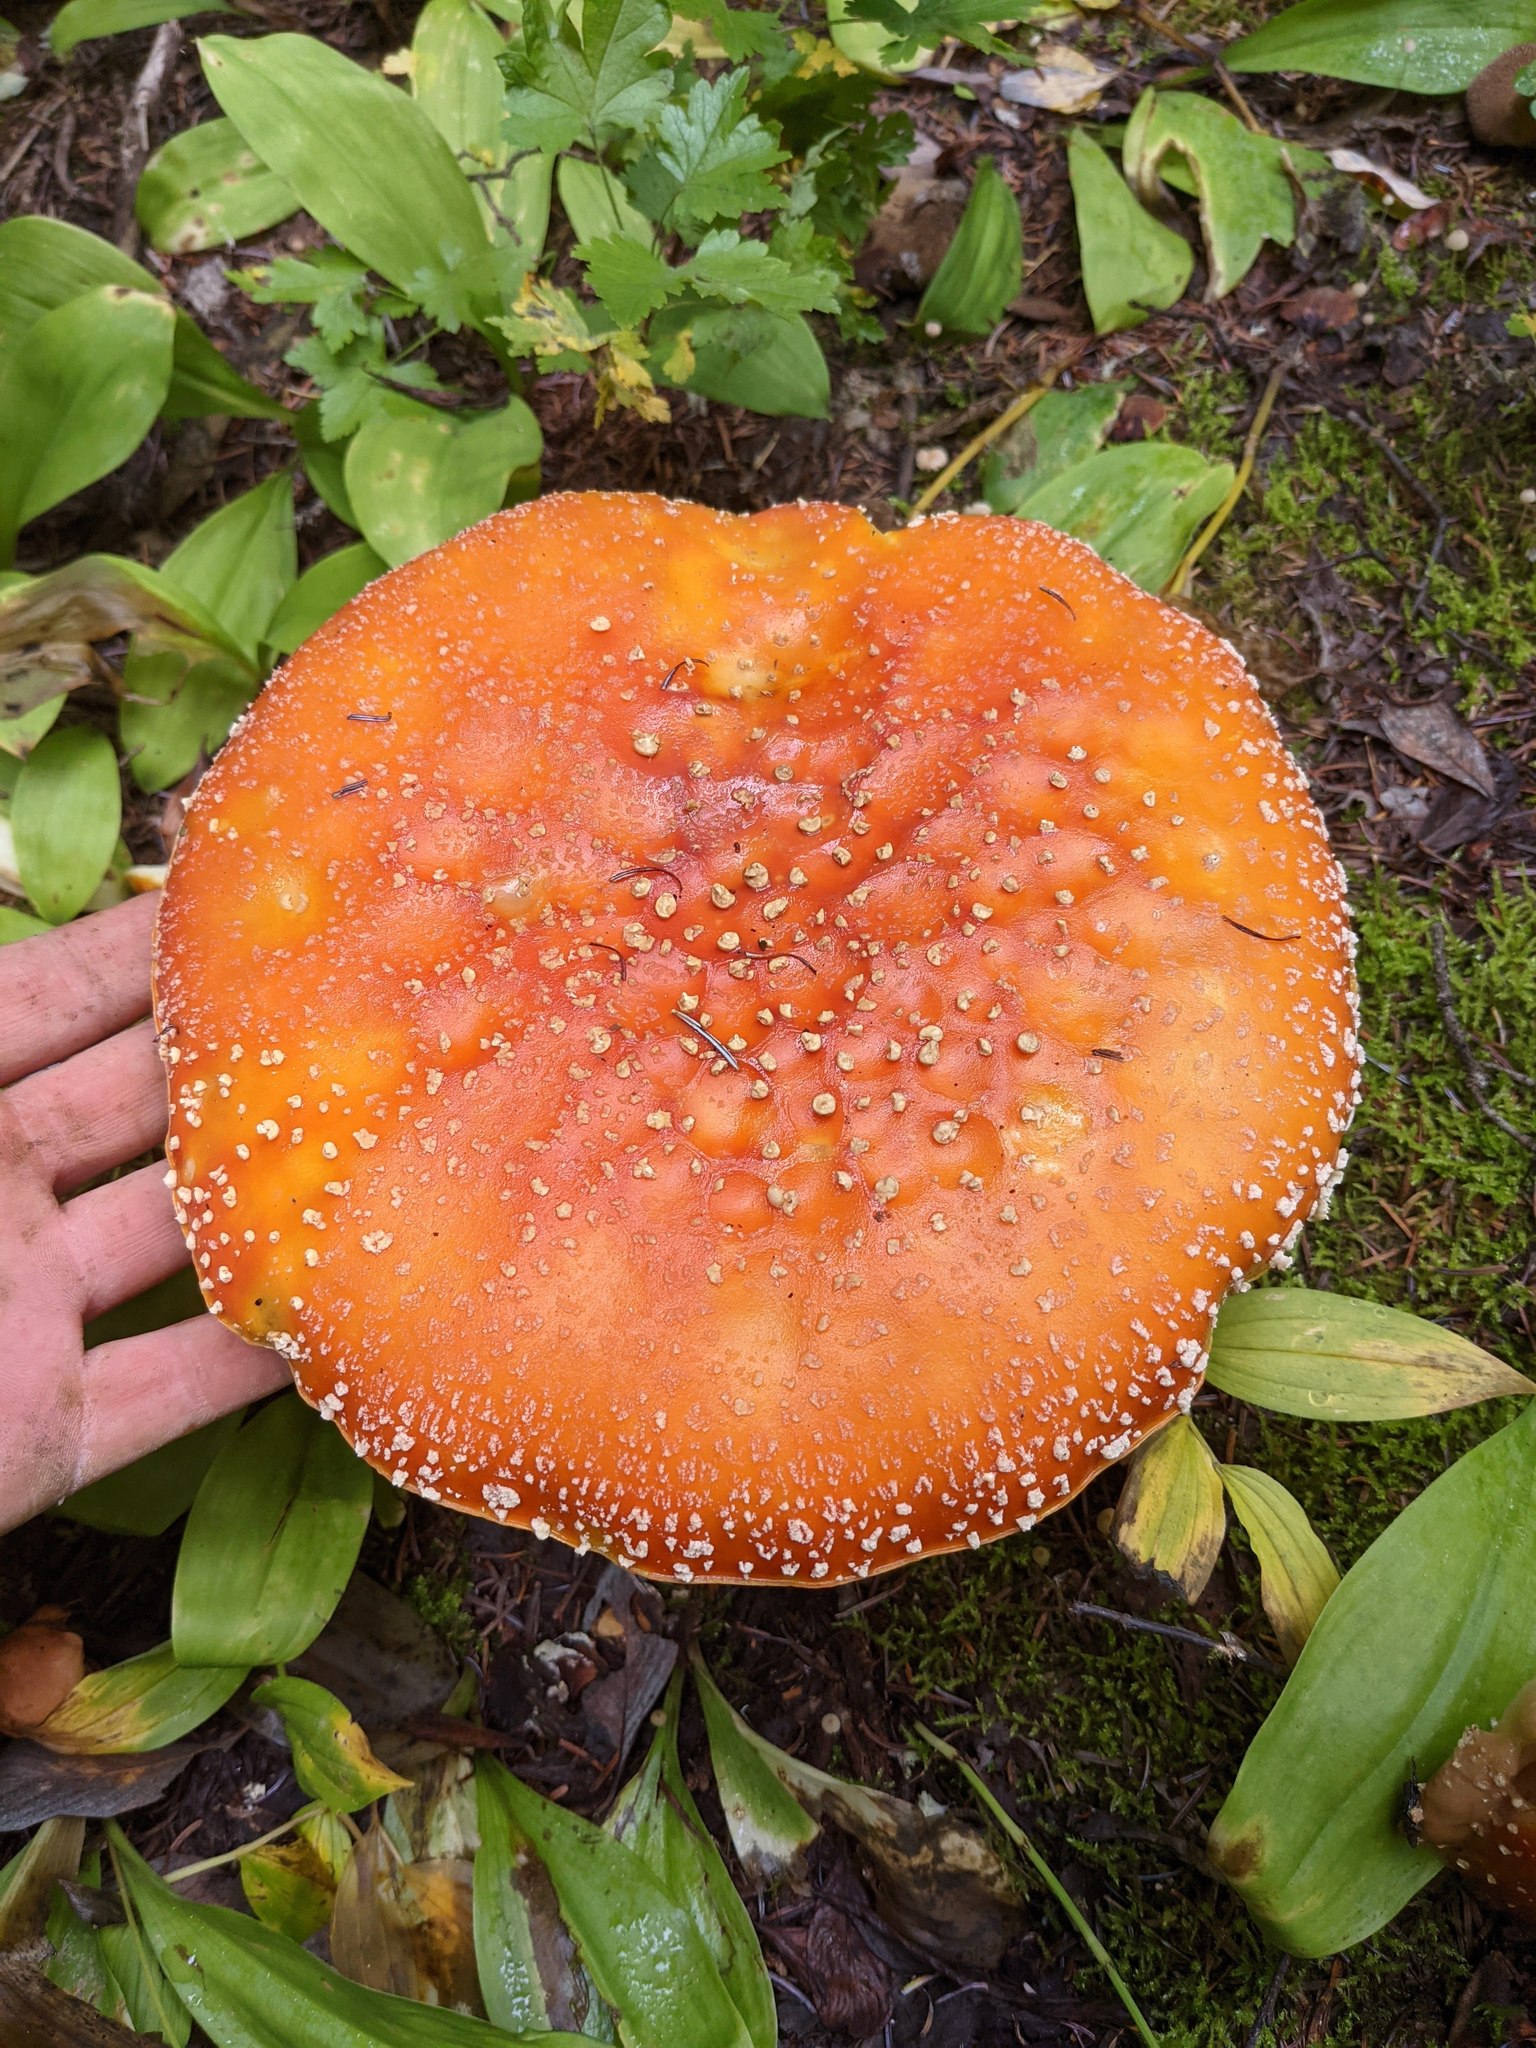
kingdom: Fungi
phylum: Basidiomycota
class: Agaricomycetes
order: Agaricales
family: Amanitaceae
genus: Amanita
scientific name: Amanita muscaria
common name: Fly agaric
